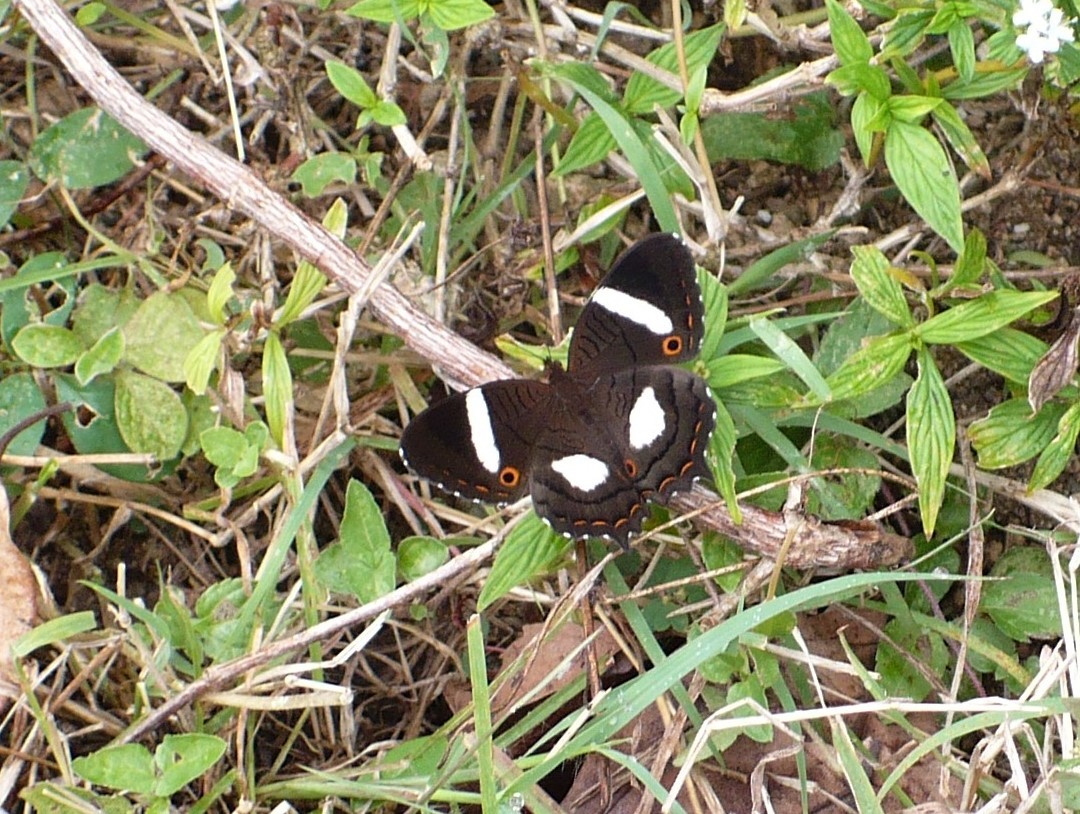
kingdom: Animalia
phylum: Arthropoda
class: Insecta
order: Lepidoptera
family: Nymphalidae
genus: Anartia
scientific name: Anartia lytraea
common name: Nymphalid moth
